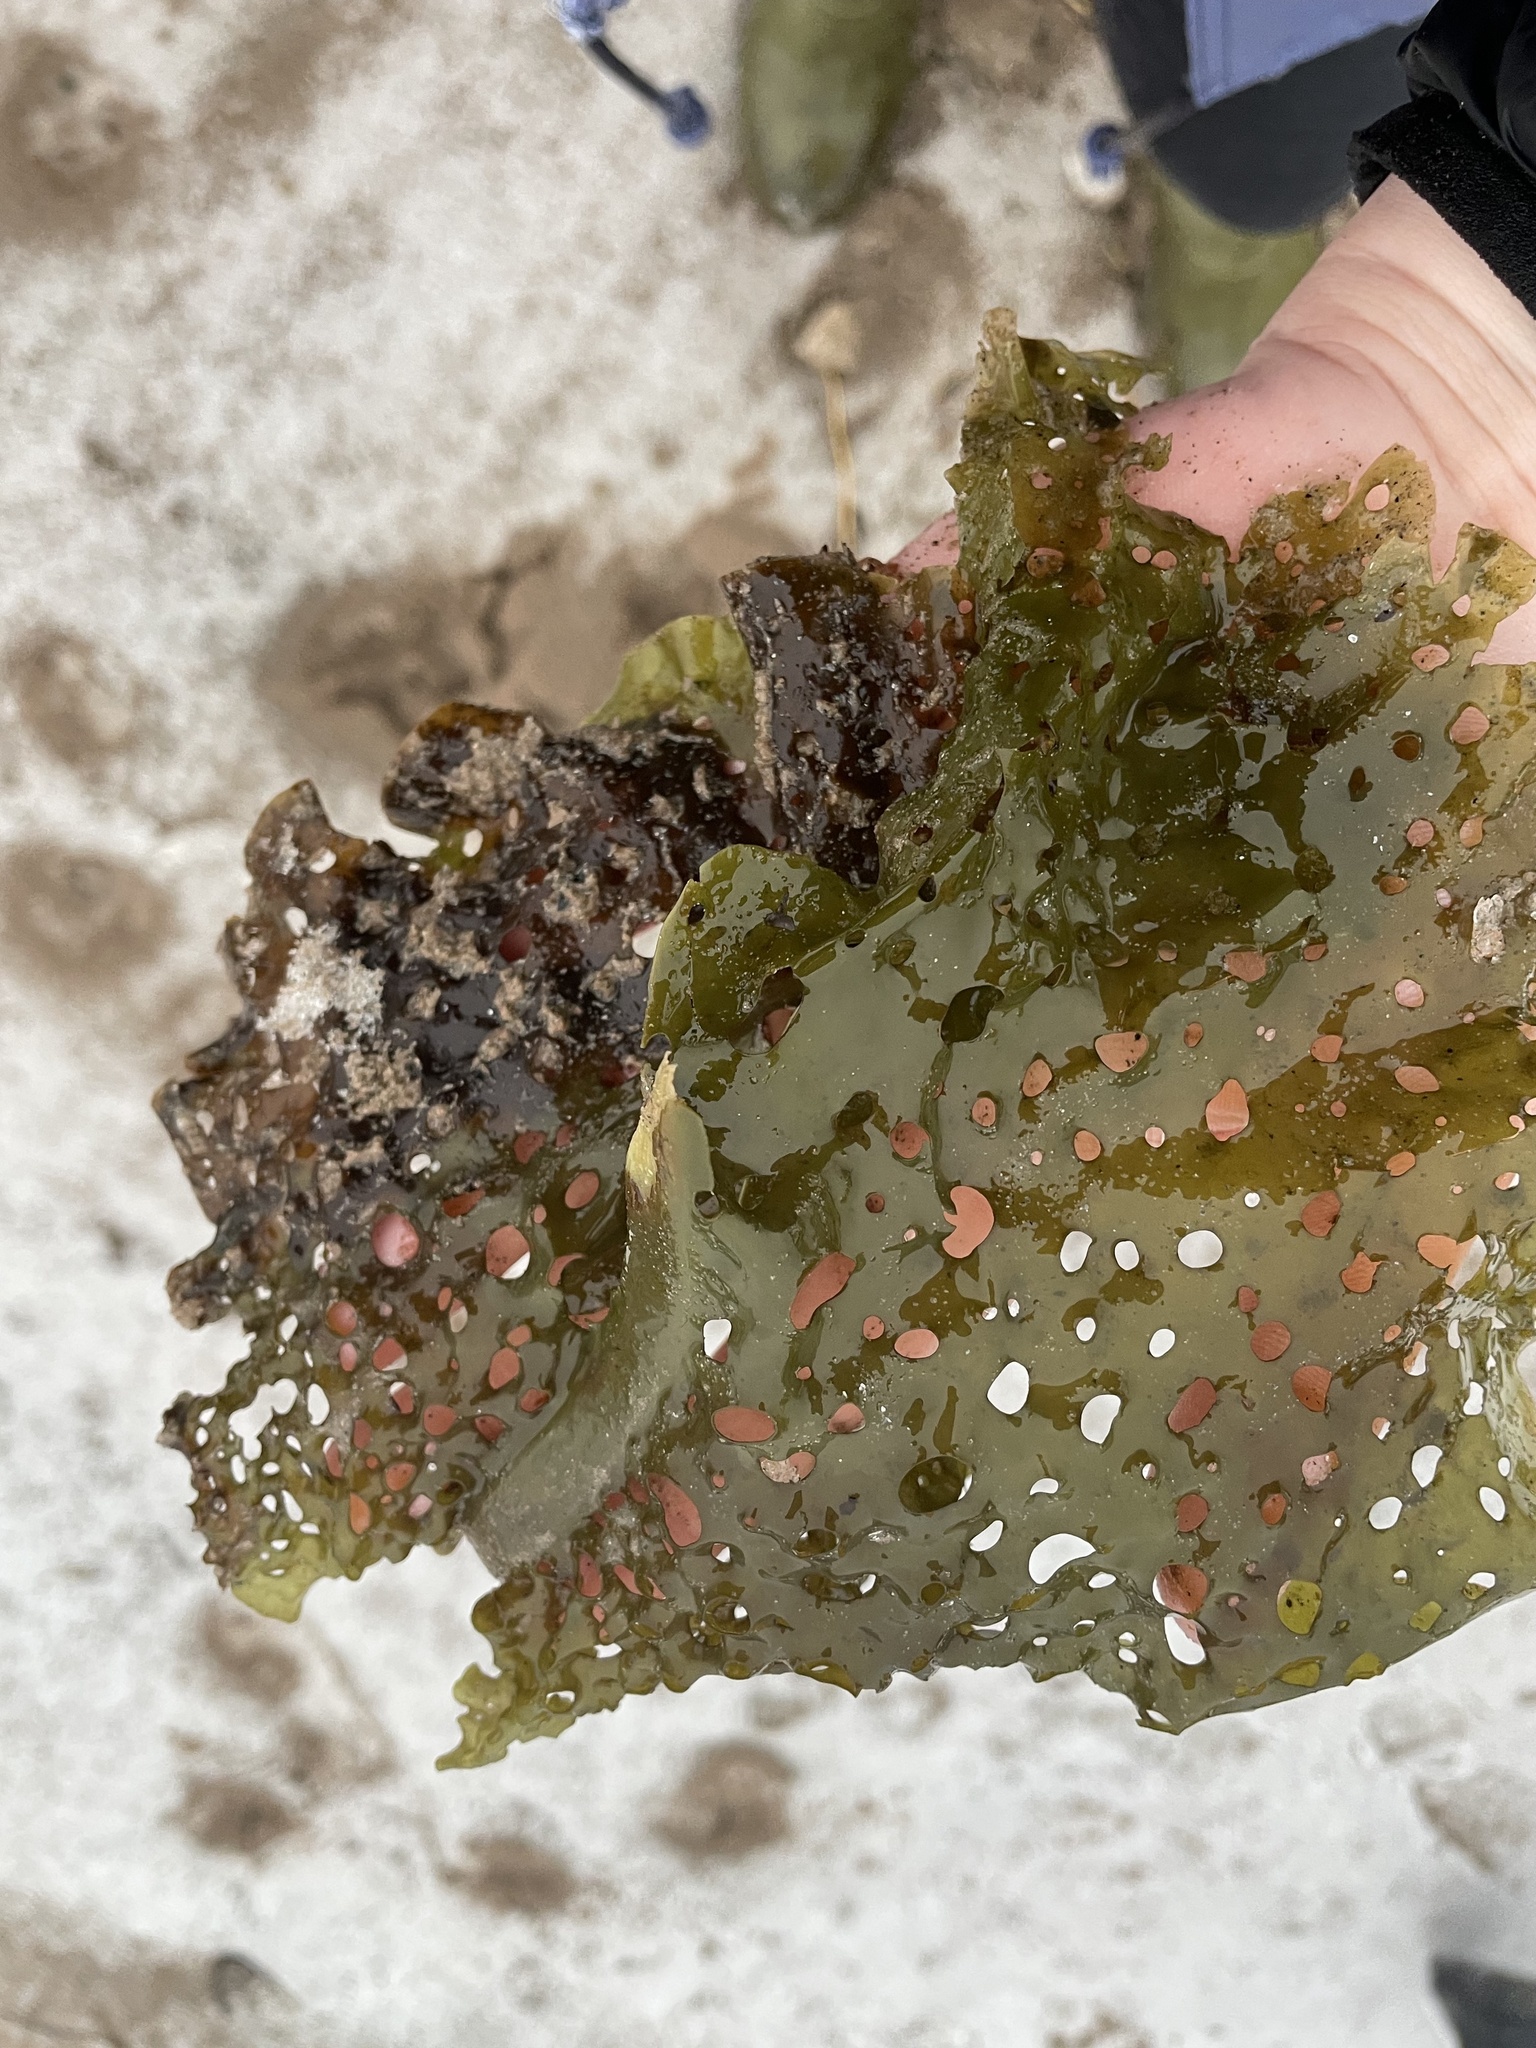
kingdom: Chromista
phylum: Ochrophyta
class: Phaeophyceae
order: Laminariales
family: Costariaceae
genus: Agarum
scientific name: Agarum clathratum
